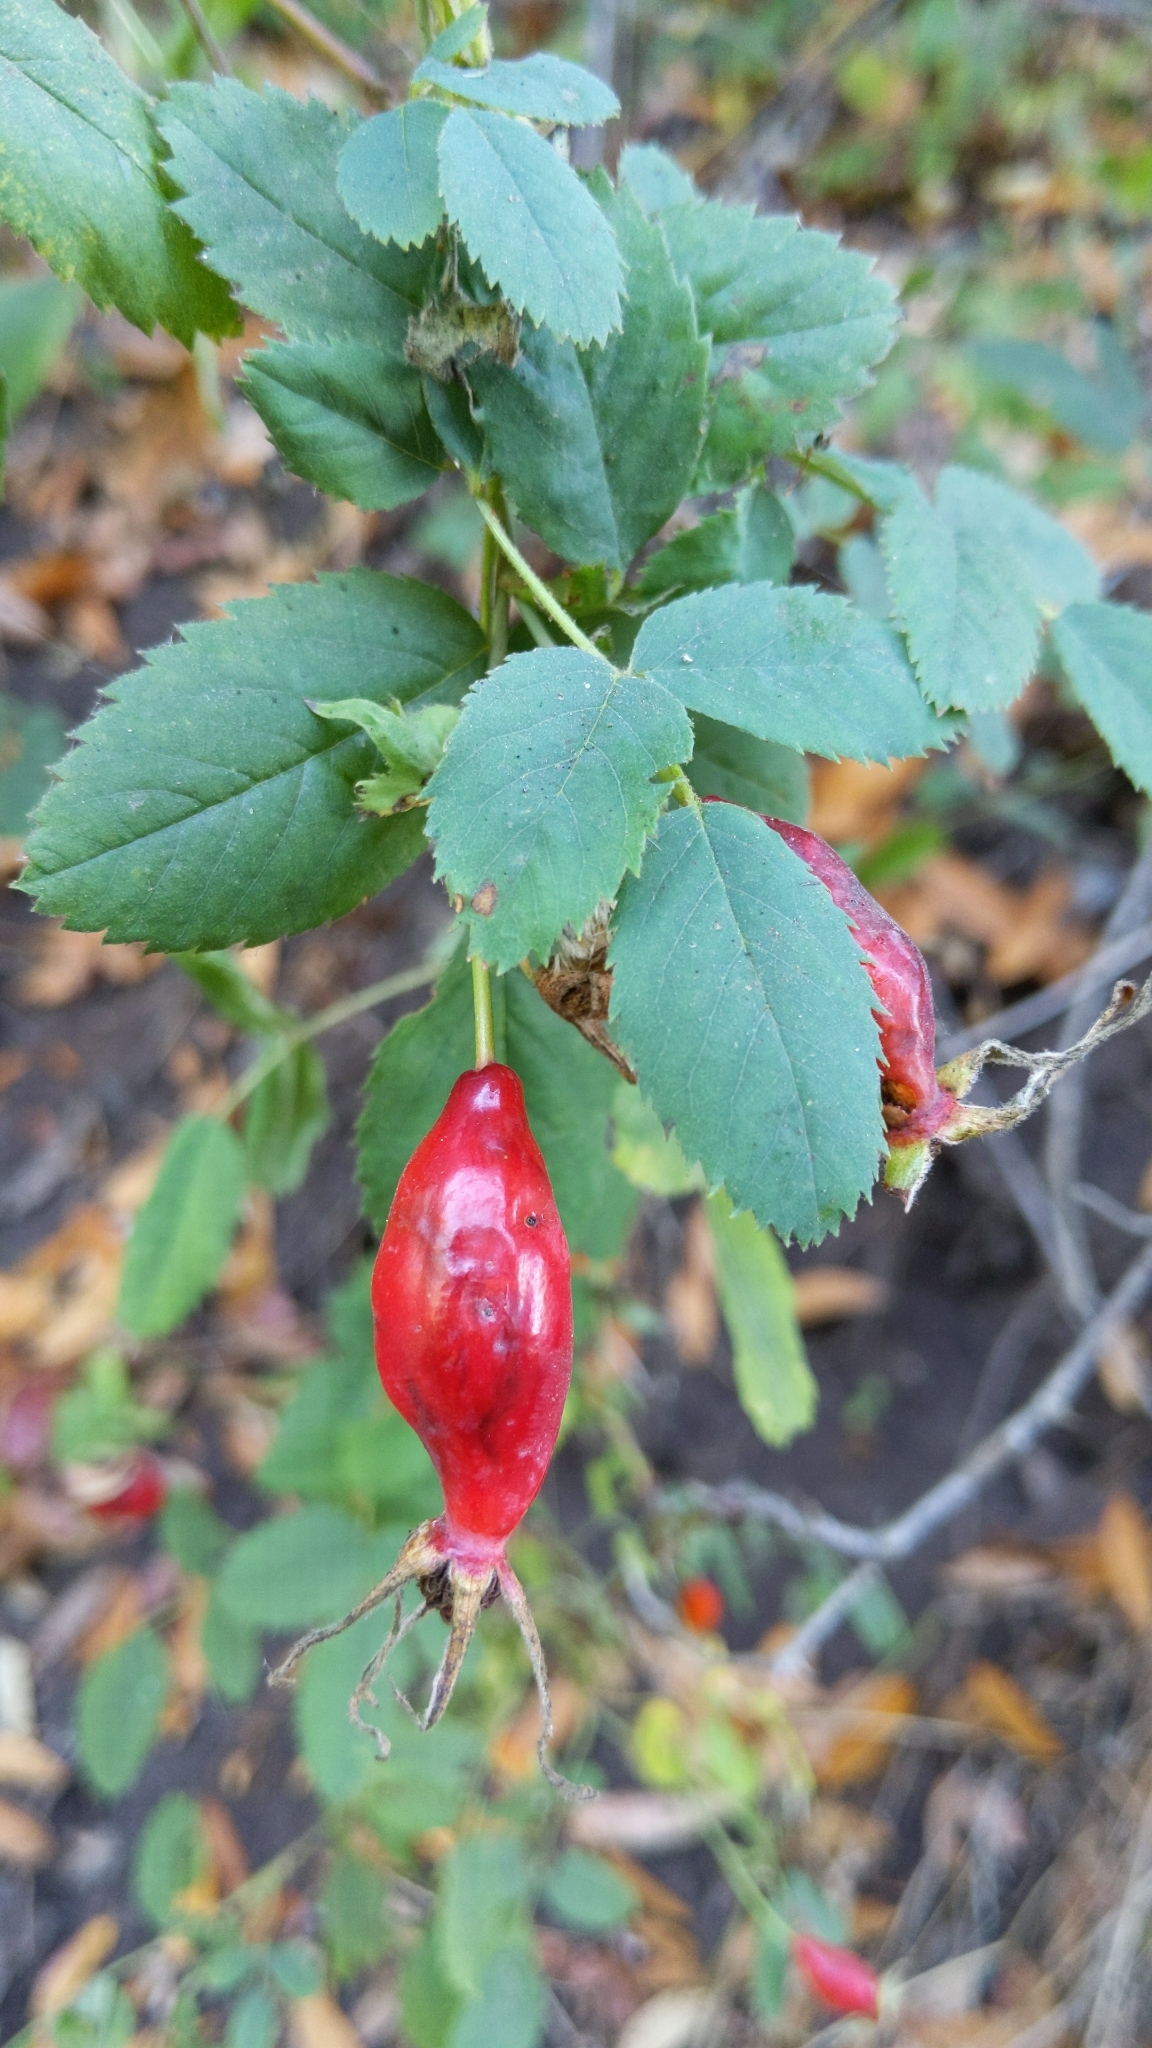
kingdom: Plantae
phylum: Tracheophyta
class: Magnoliopsida
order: Rosales
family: Rosaceae
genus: Rosa
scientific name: Rosa californica
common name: California rose
